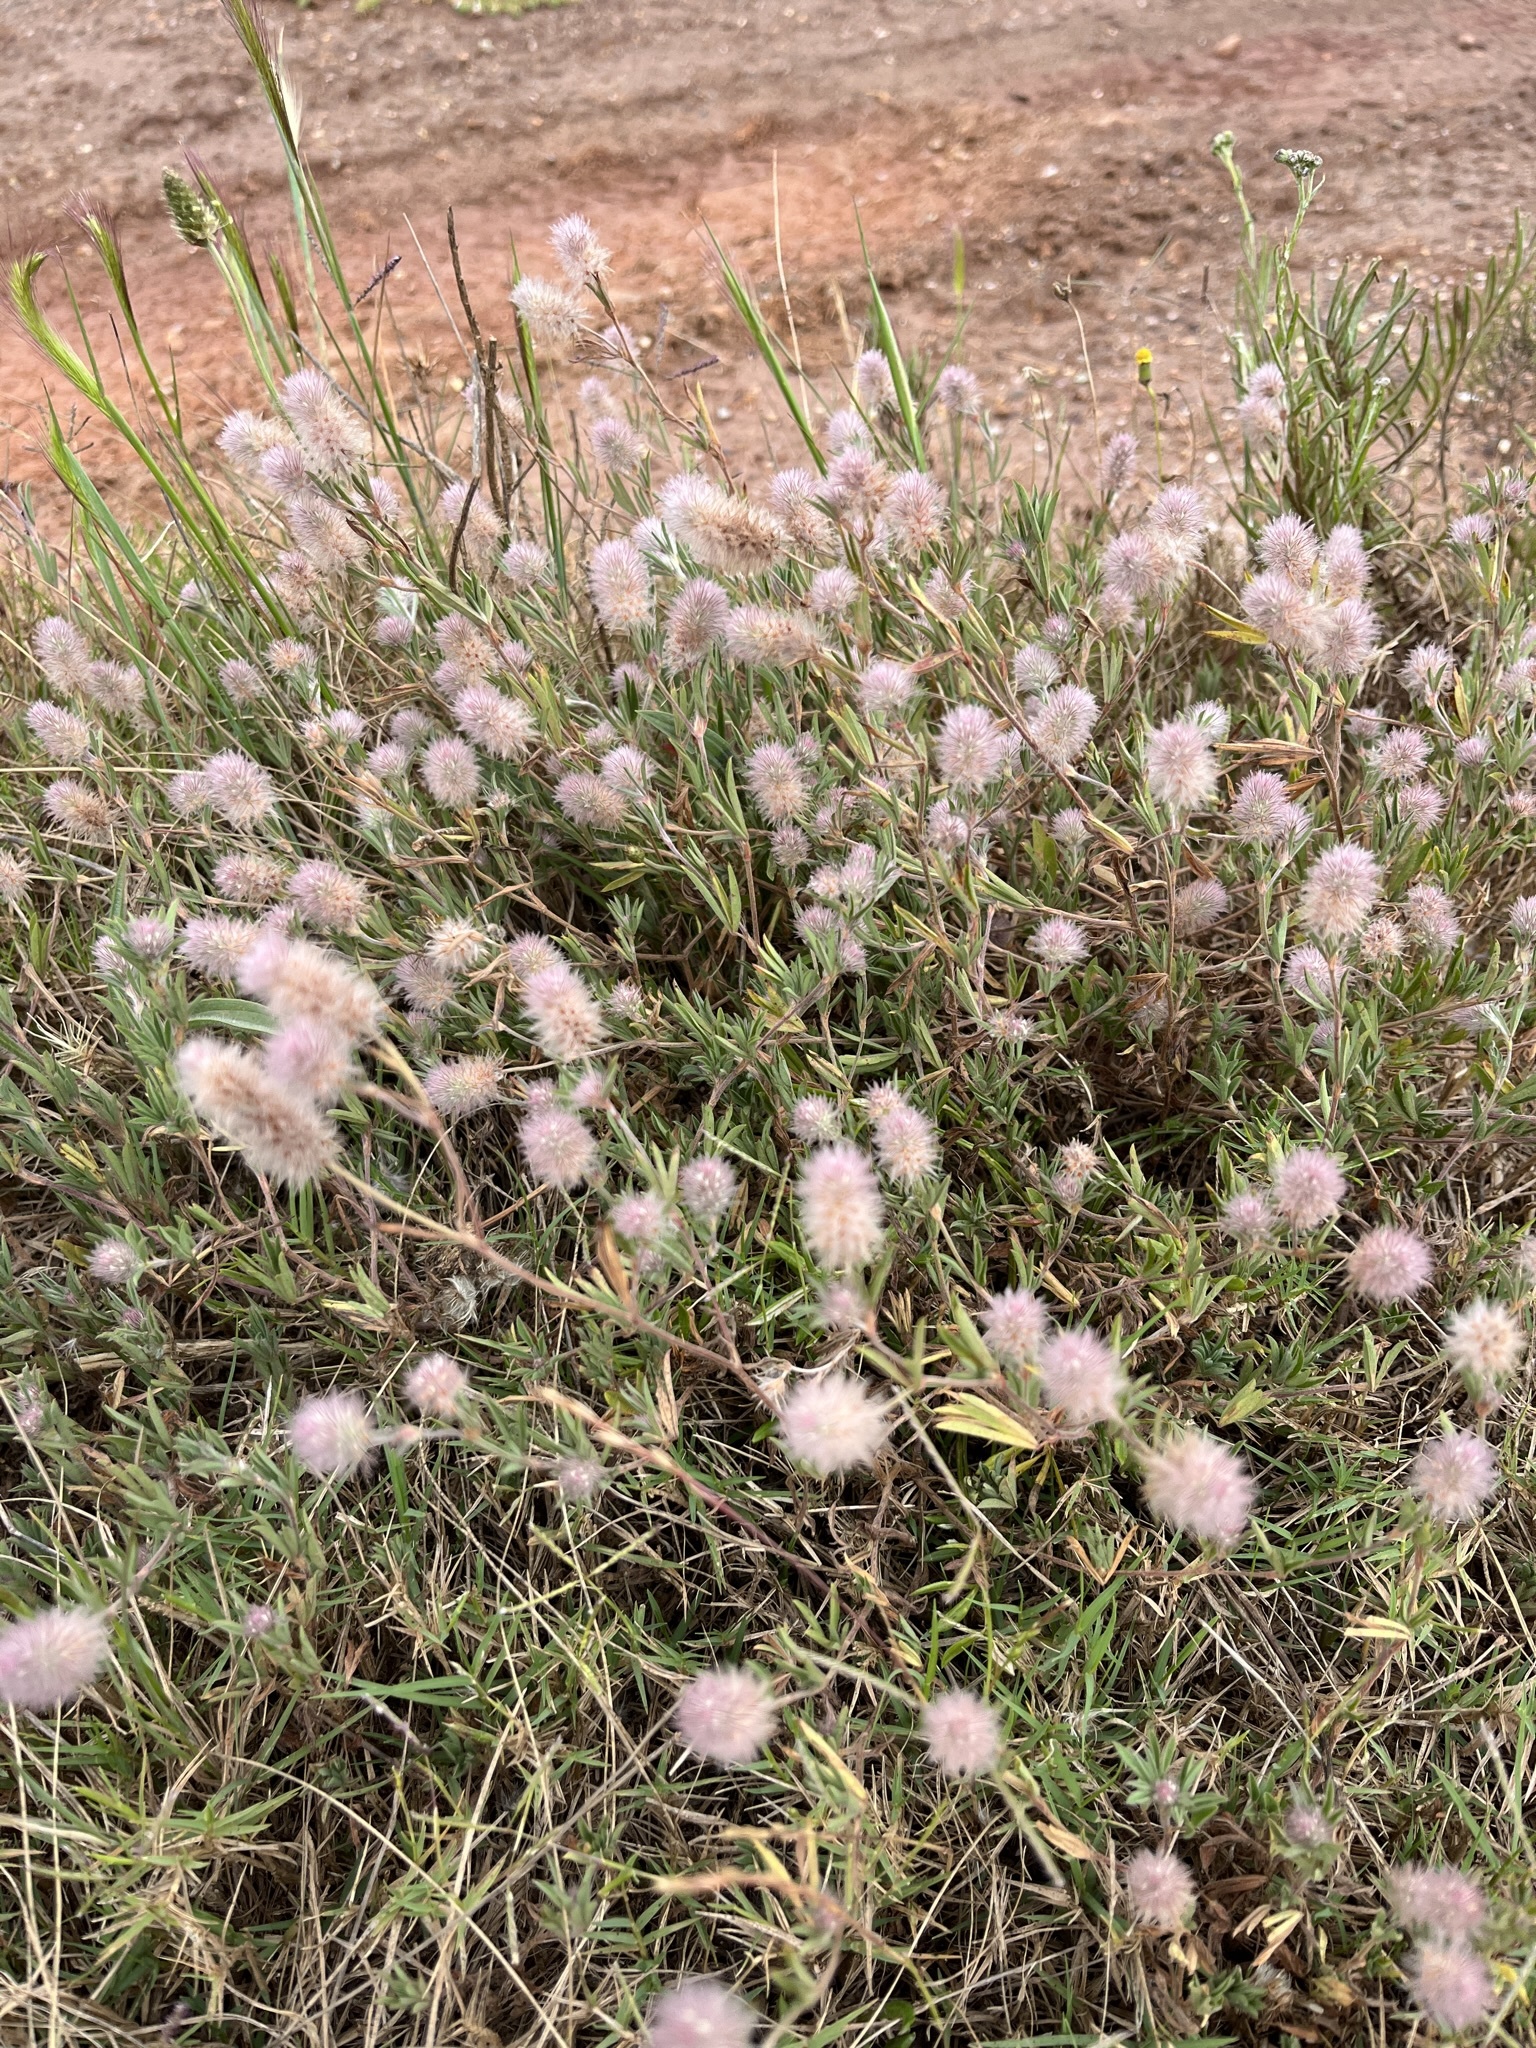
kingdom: Plantae
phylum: Tracheophyta
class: Magnoliopsida
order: Fabales
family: Fabaceae
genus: Trifolium
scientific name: Trifolium arvense
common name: Hare's-foot clover
